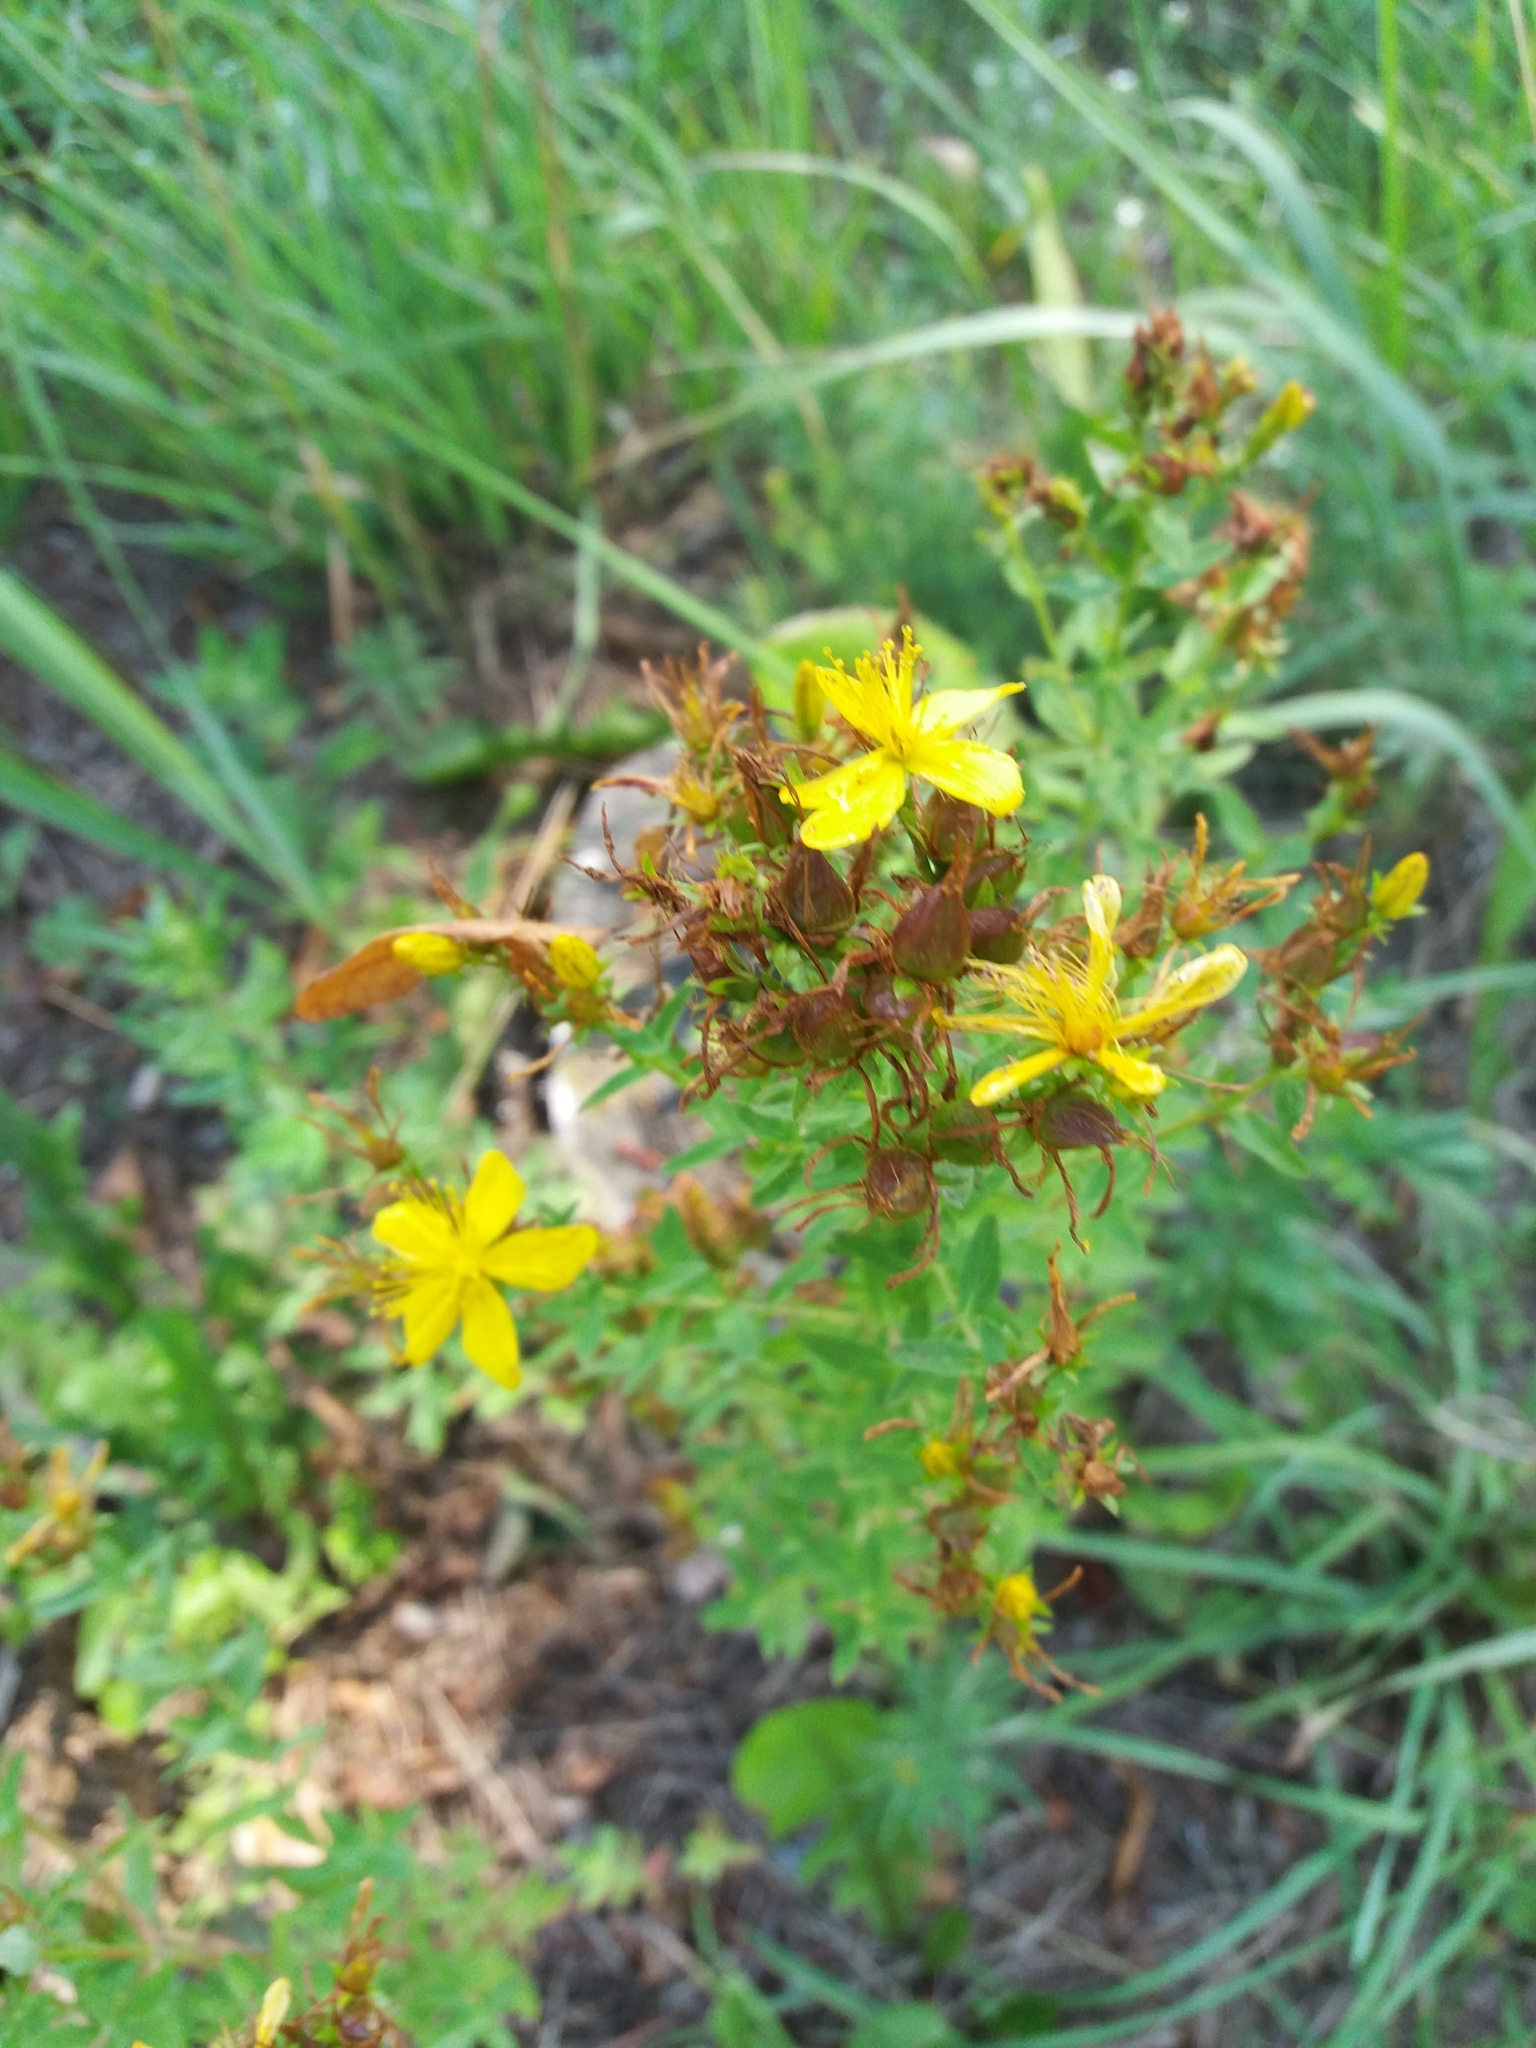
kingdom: Plantae
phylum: Tracheophyta
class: Magnoliopsida
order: Malpighiales
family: Hypericaceae
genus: Hypericum
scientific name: Hypericum perforatum
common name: Common st. johnswort
